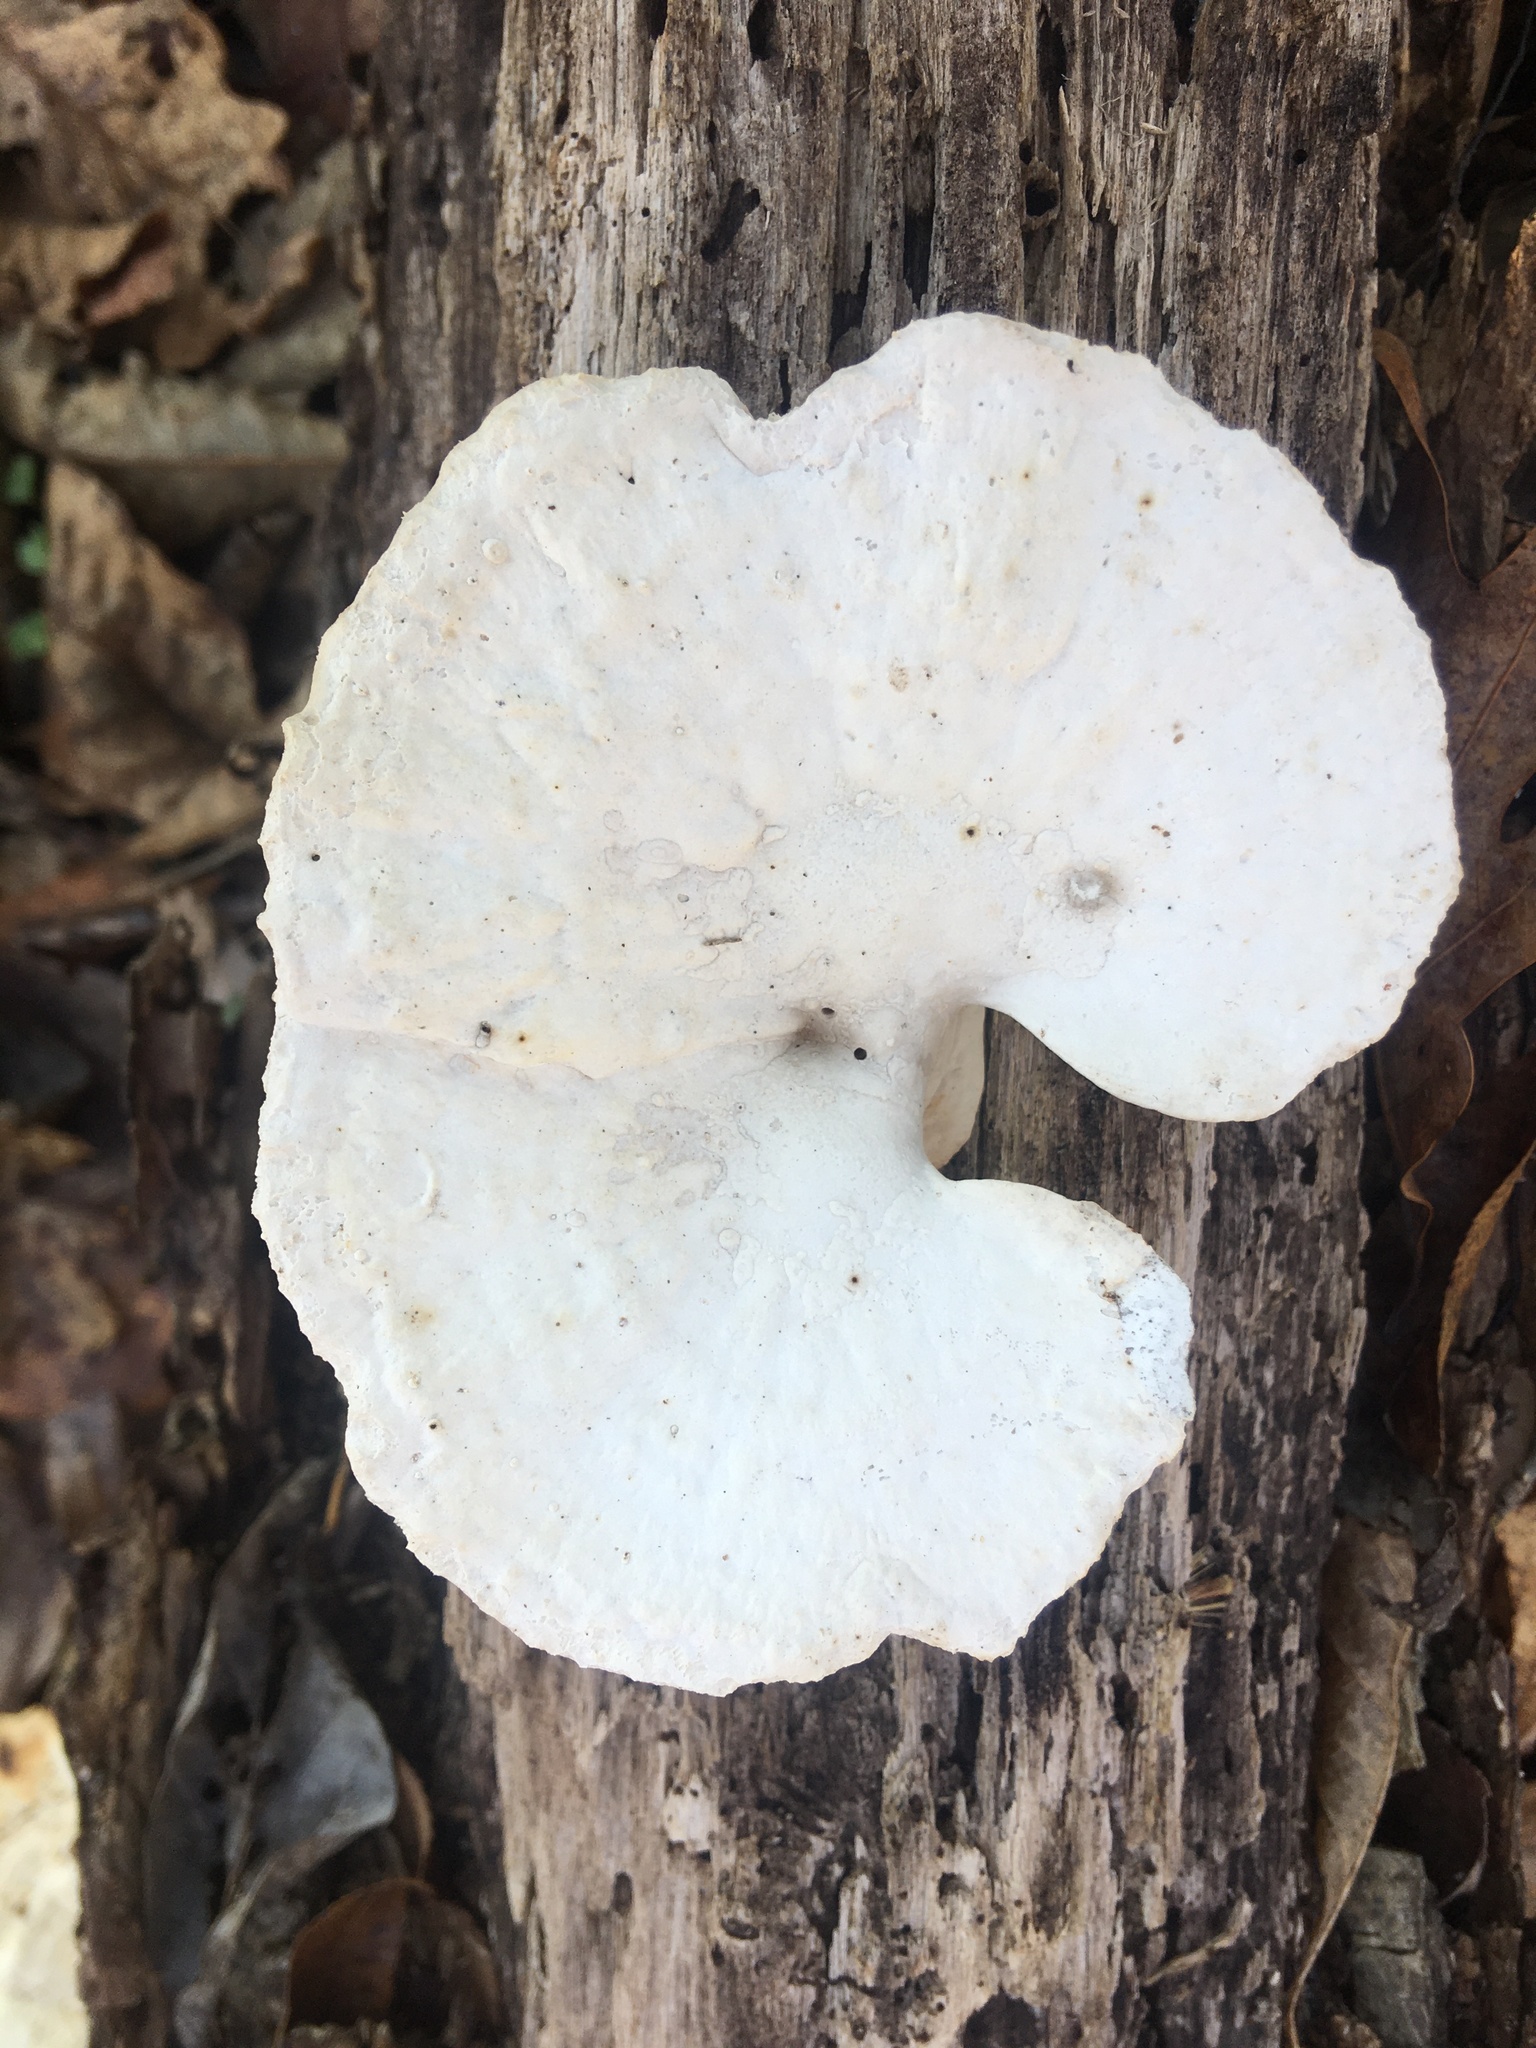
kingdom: Fungi
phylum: Basidiomycota
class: Agaricomycetes
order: Polyporales
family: Polyporaceae
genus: Trametes
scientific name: Trametes
